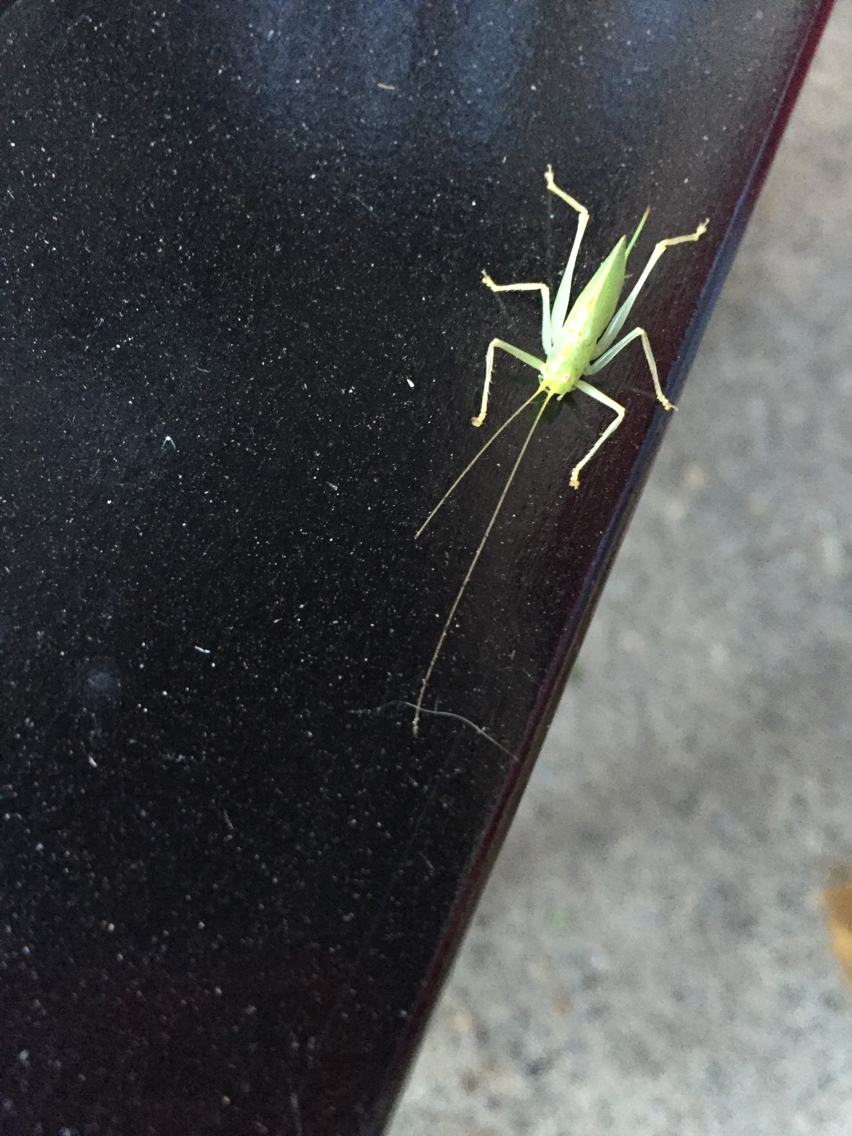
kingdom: Animalia
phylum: Arthropoda
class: Insecta
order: Orthoptera
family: Tettigoniidae
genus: Meconema
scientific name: Meconema thalassinum
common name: Oak bush-cricket
